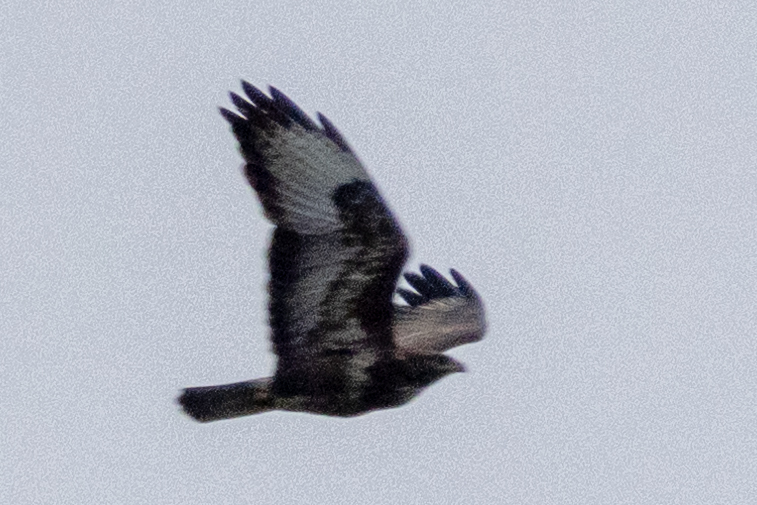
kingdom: Animalia
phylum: Chordata
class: Aves
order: Accipitriformes
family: Accipitridae
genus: Buteo
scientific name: Buteo buteo
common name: Common buzzard
